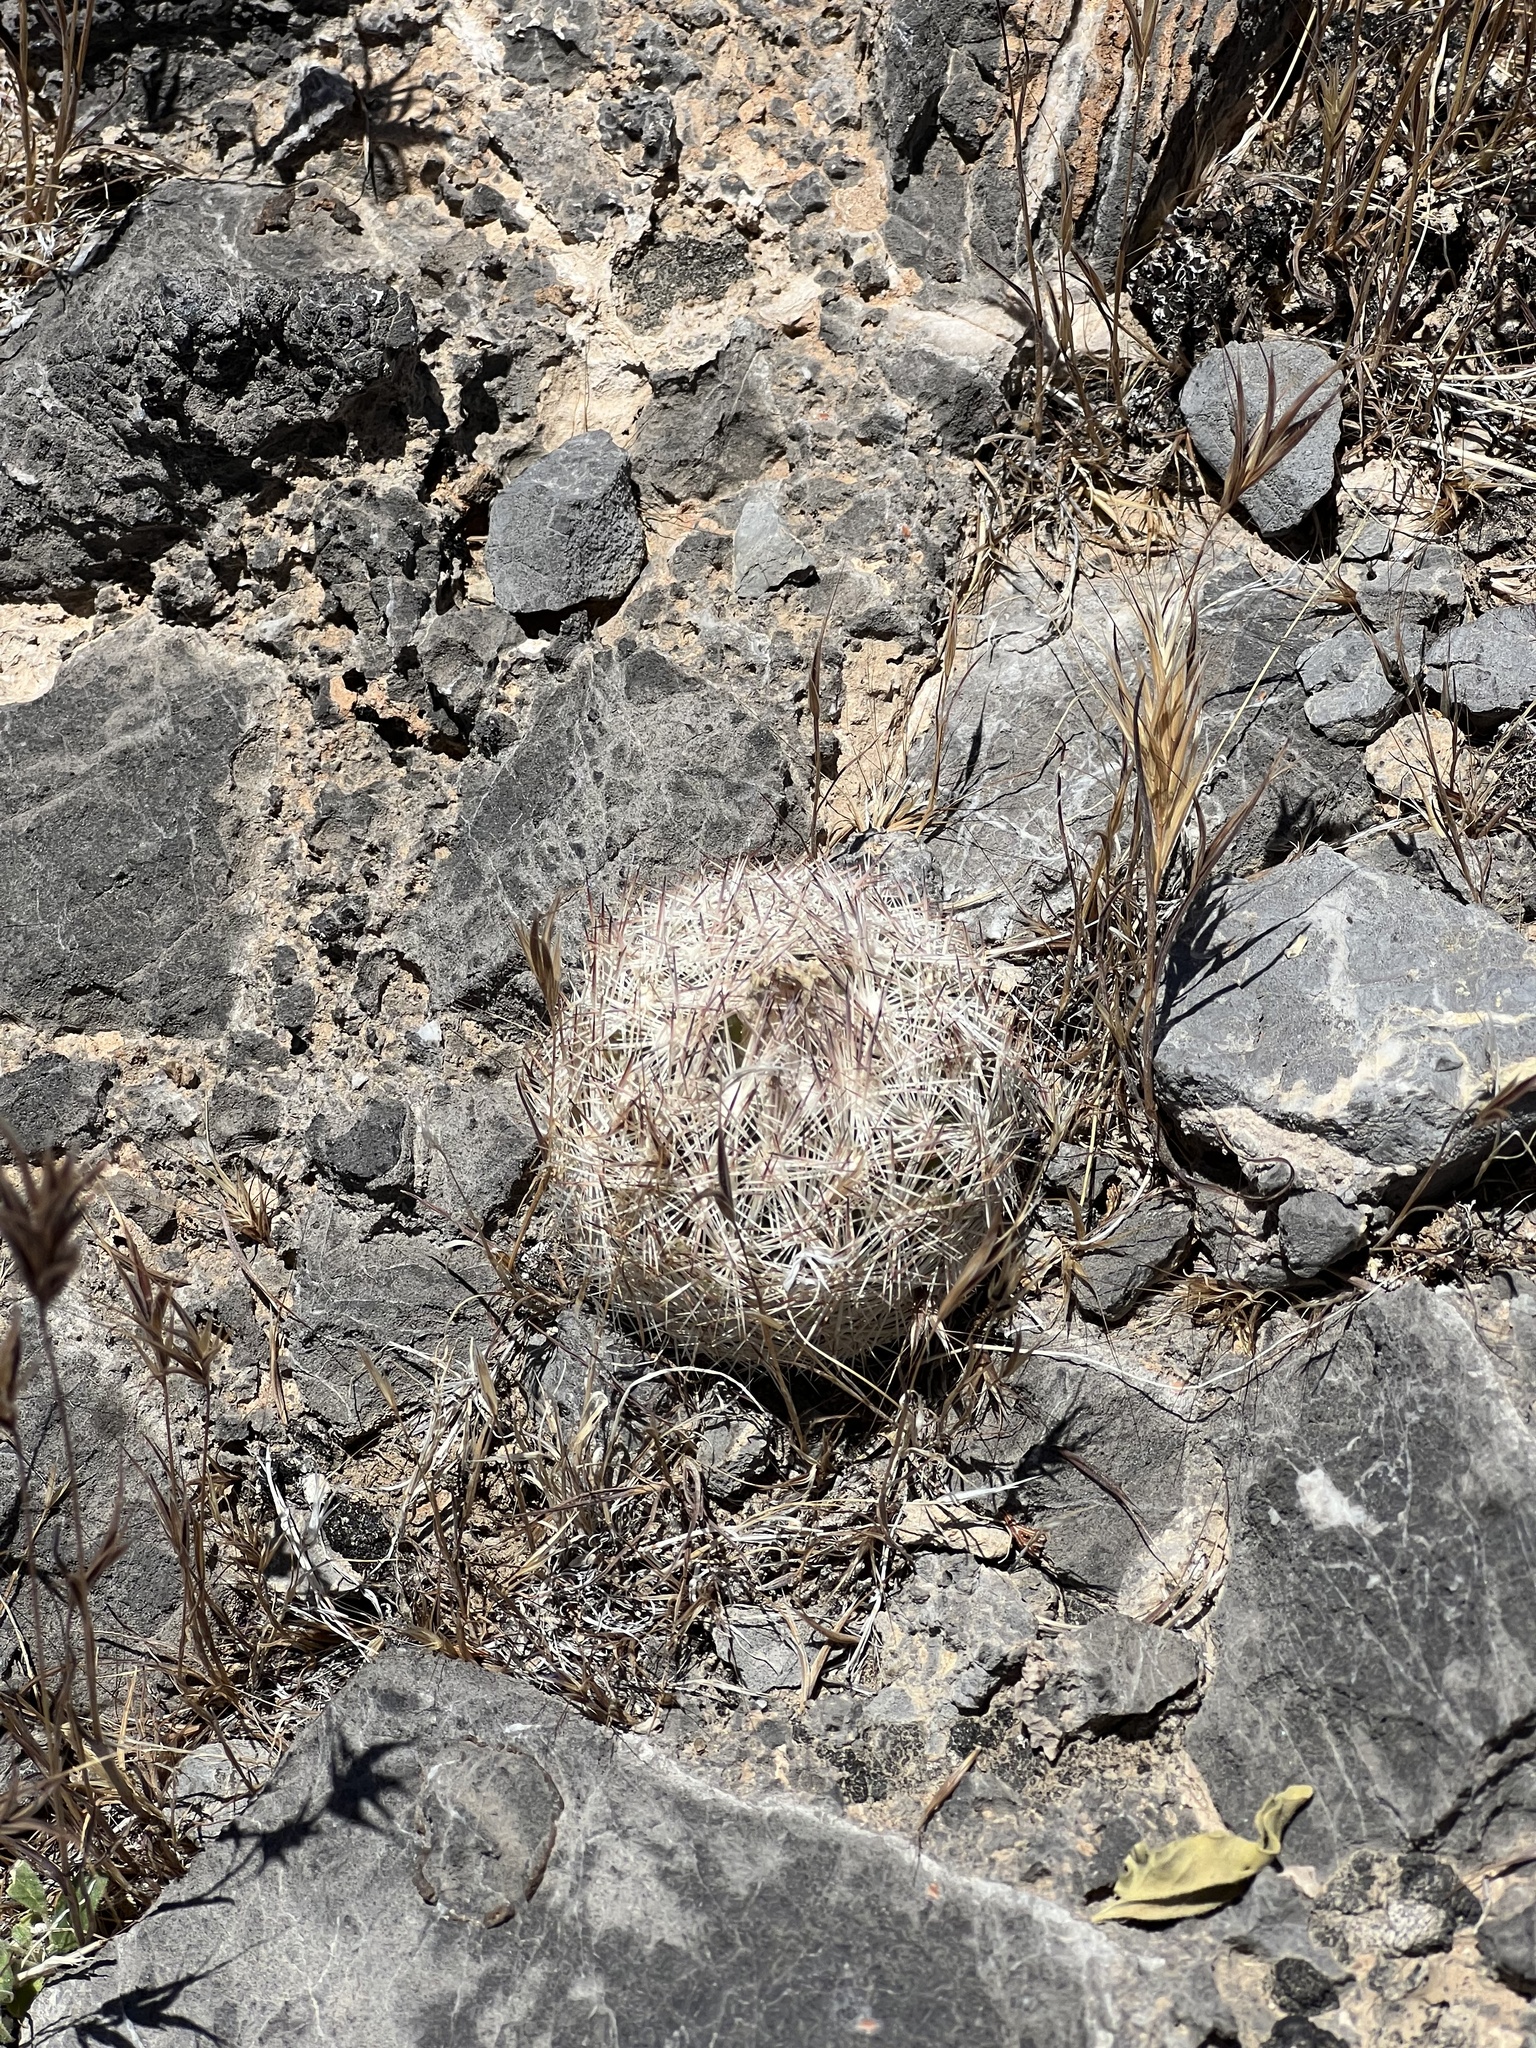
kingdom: Plantae
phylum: Tracheophyta
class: Magnoliopsida
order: Caryophyllales
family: Cactaceae
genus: Pelecyphora
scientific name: Pelecyphora dasyacantha
